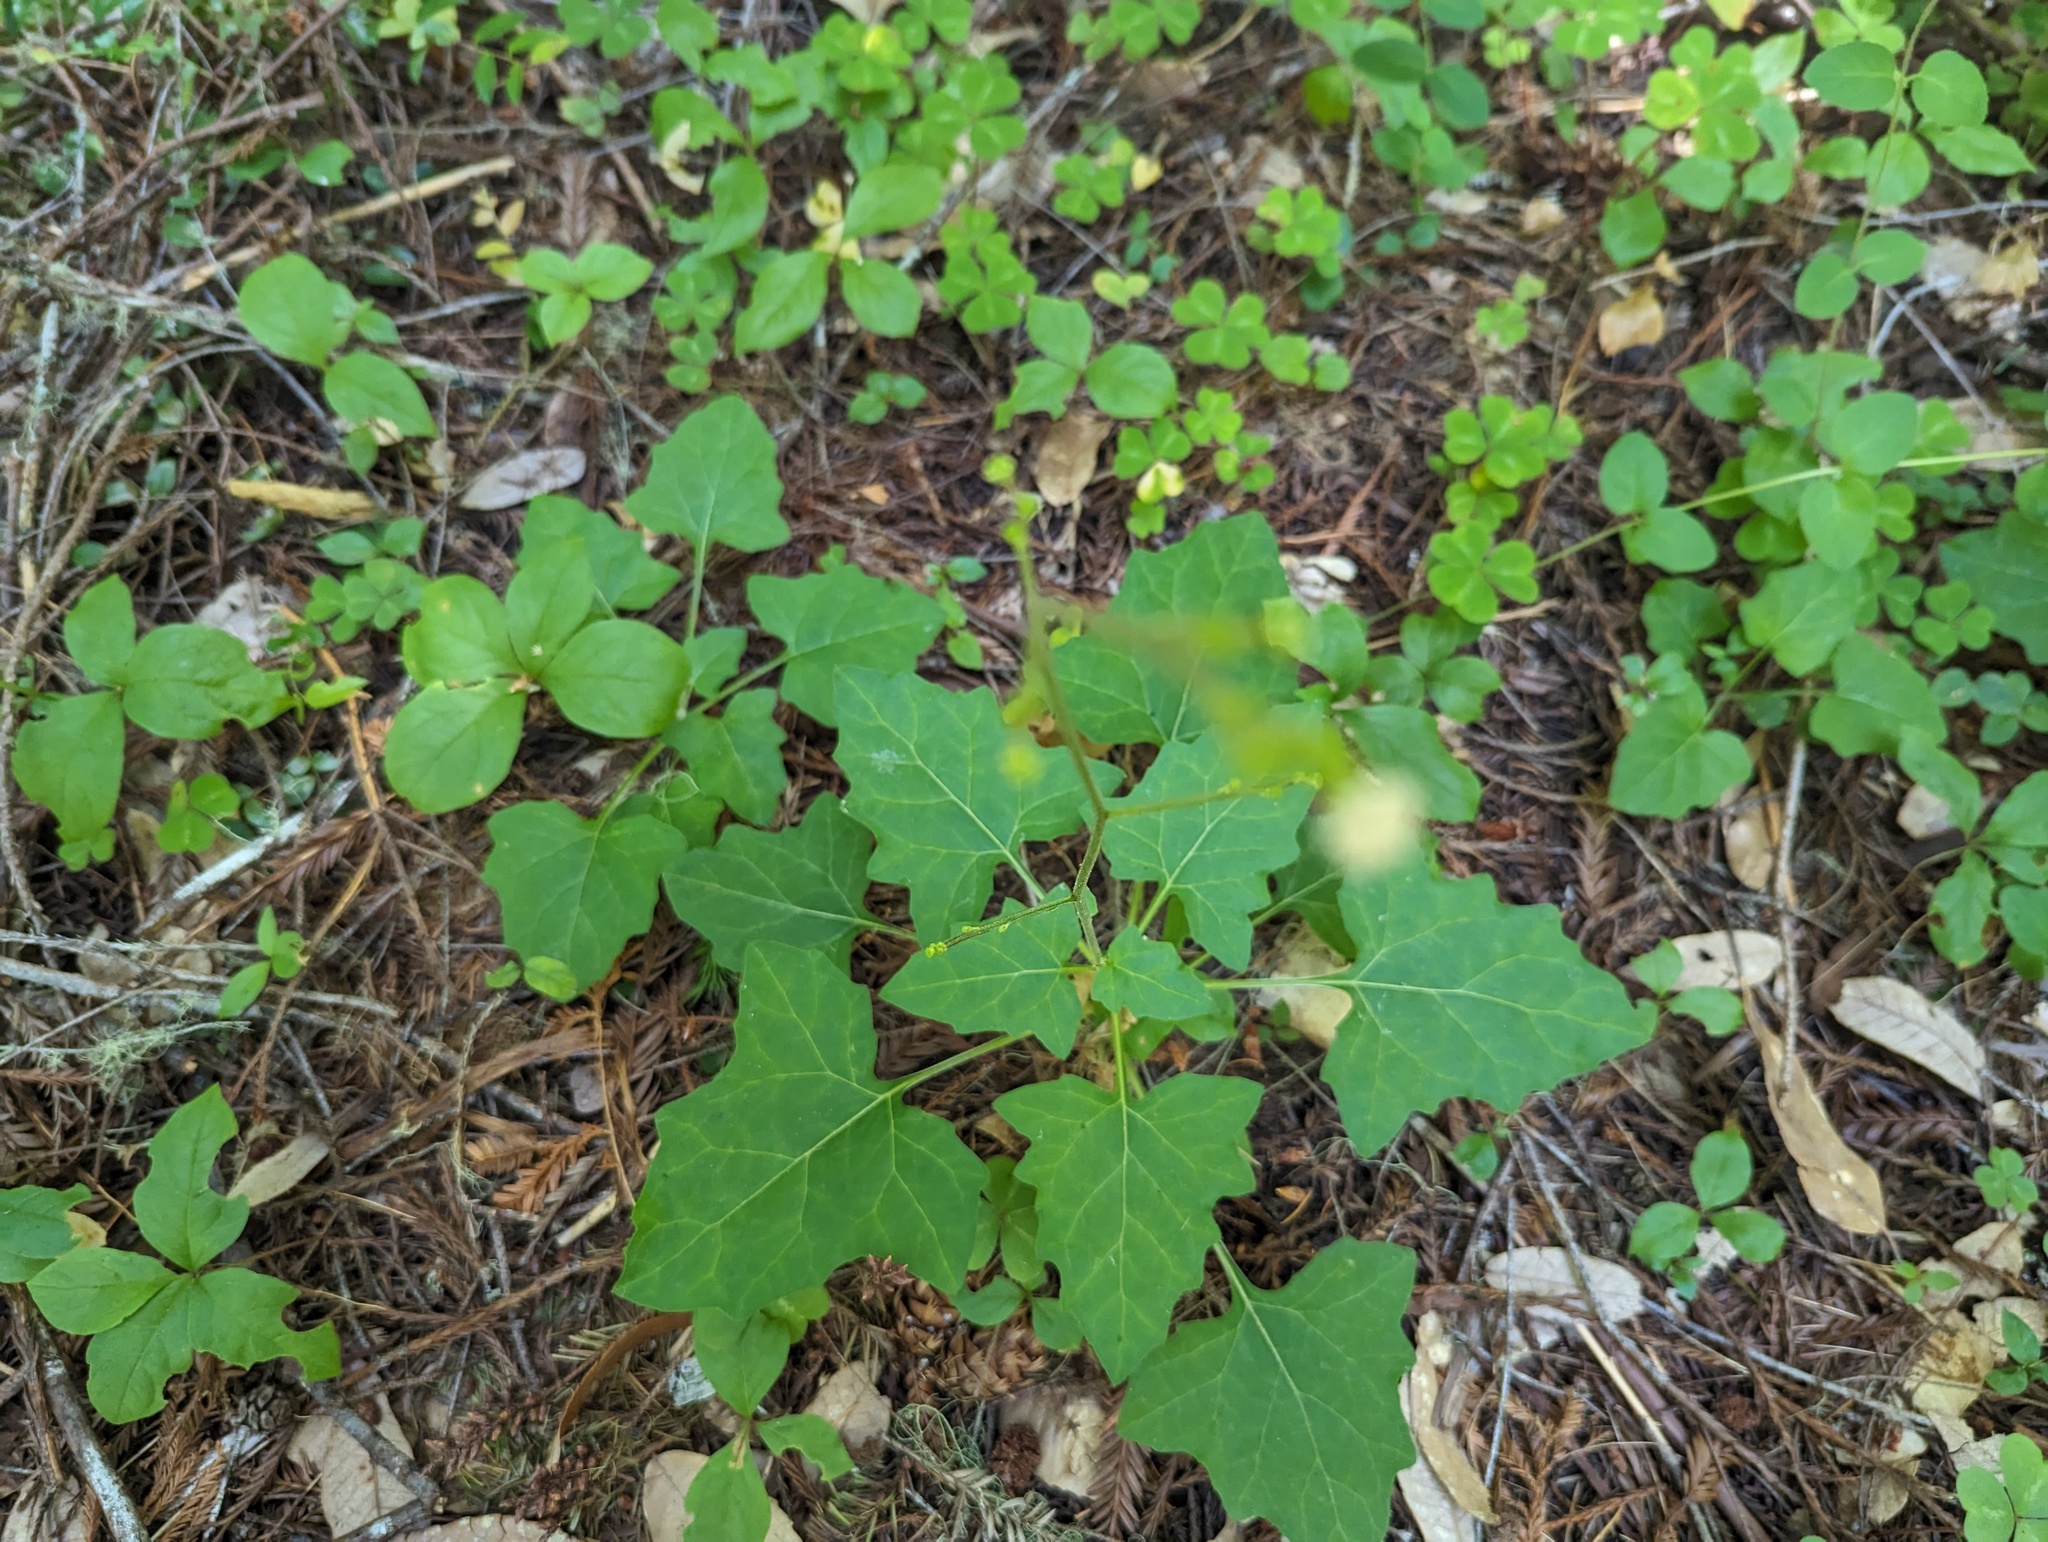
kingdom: Plantae
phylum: Tracheophyta
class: Magnoliopsida
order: Asterales
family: Asteraceae
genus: Adenocaulon
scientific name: Adenocaulon bicolor
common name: Trailplant
